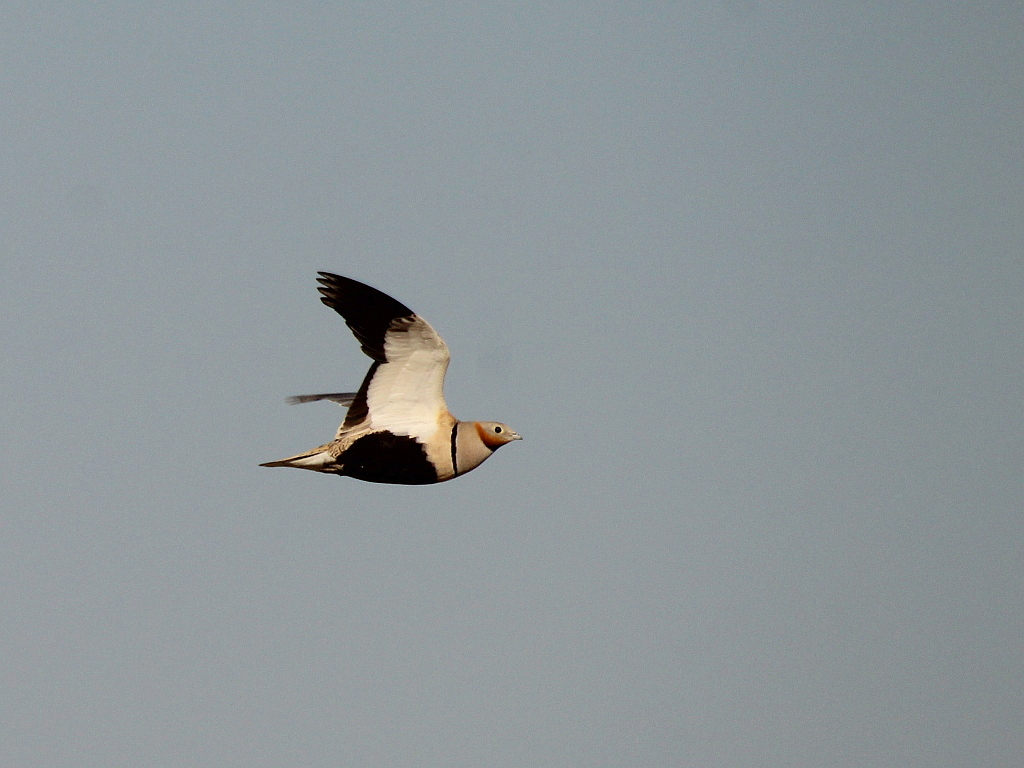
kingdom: Animalia
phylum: Chordata
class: Aves
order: Pteroclidiformes
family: Pteroclididae
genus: Pterocles
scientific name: Pterocles orientalis
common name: Black-bellied sandgrouse
